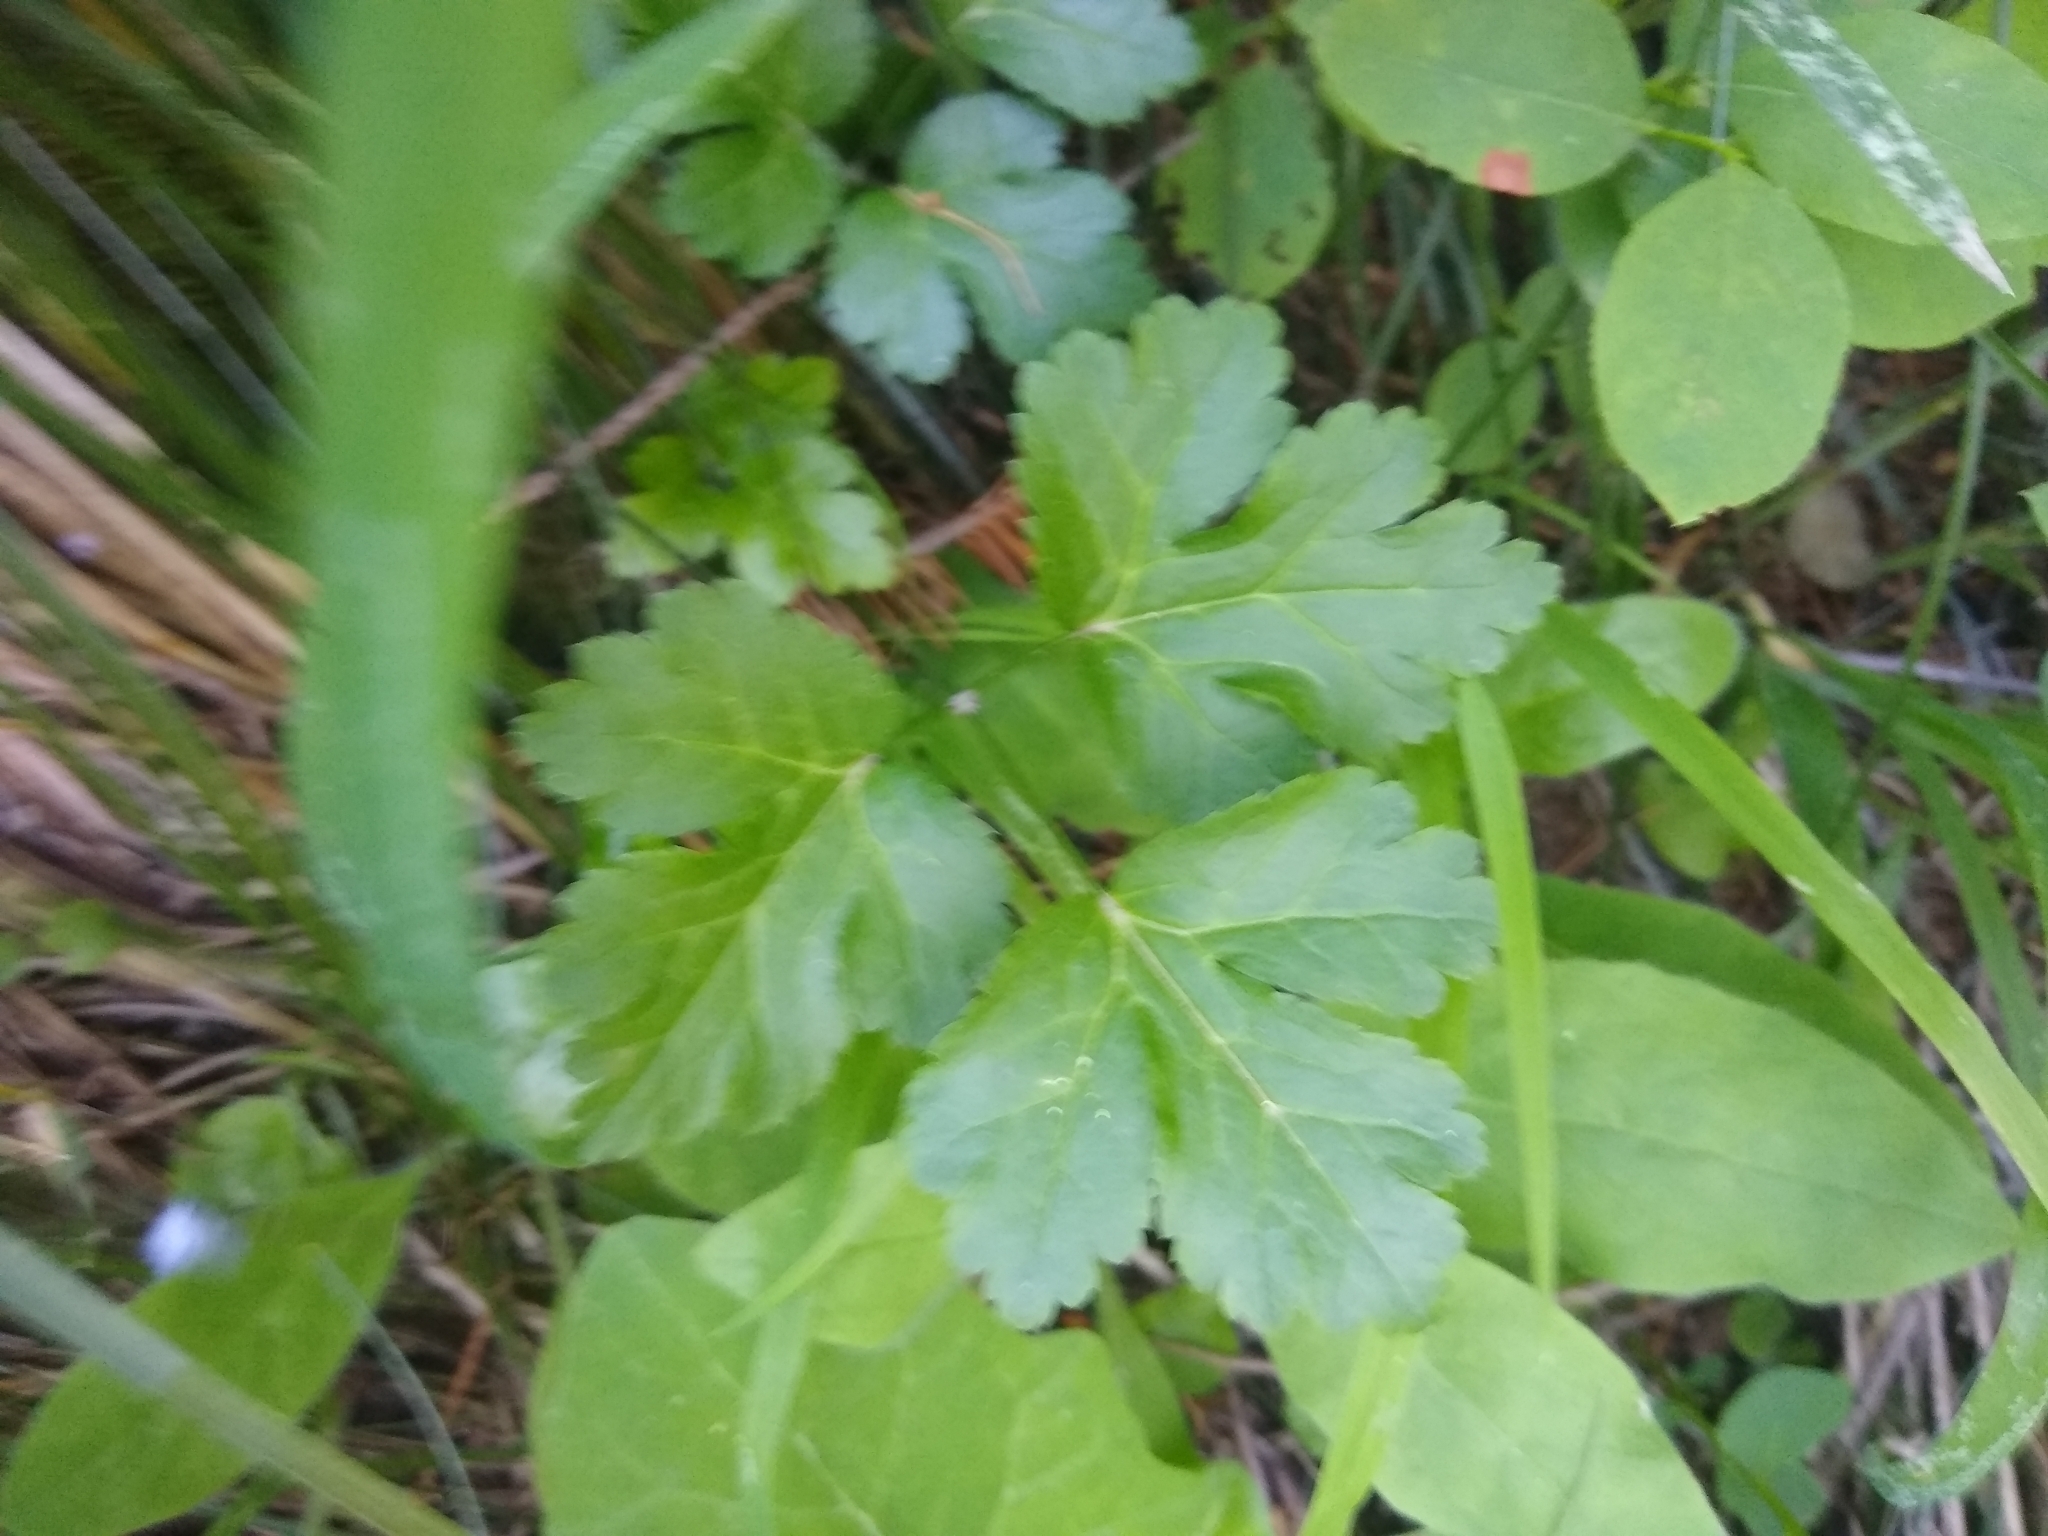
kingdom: Plantae
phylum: Tracheophyta
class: Magnoliopsida
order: Ranunculales
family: Ranunculaceae
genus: Coptis
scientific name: Coptis occidentalis
